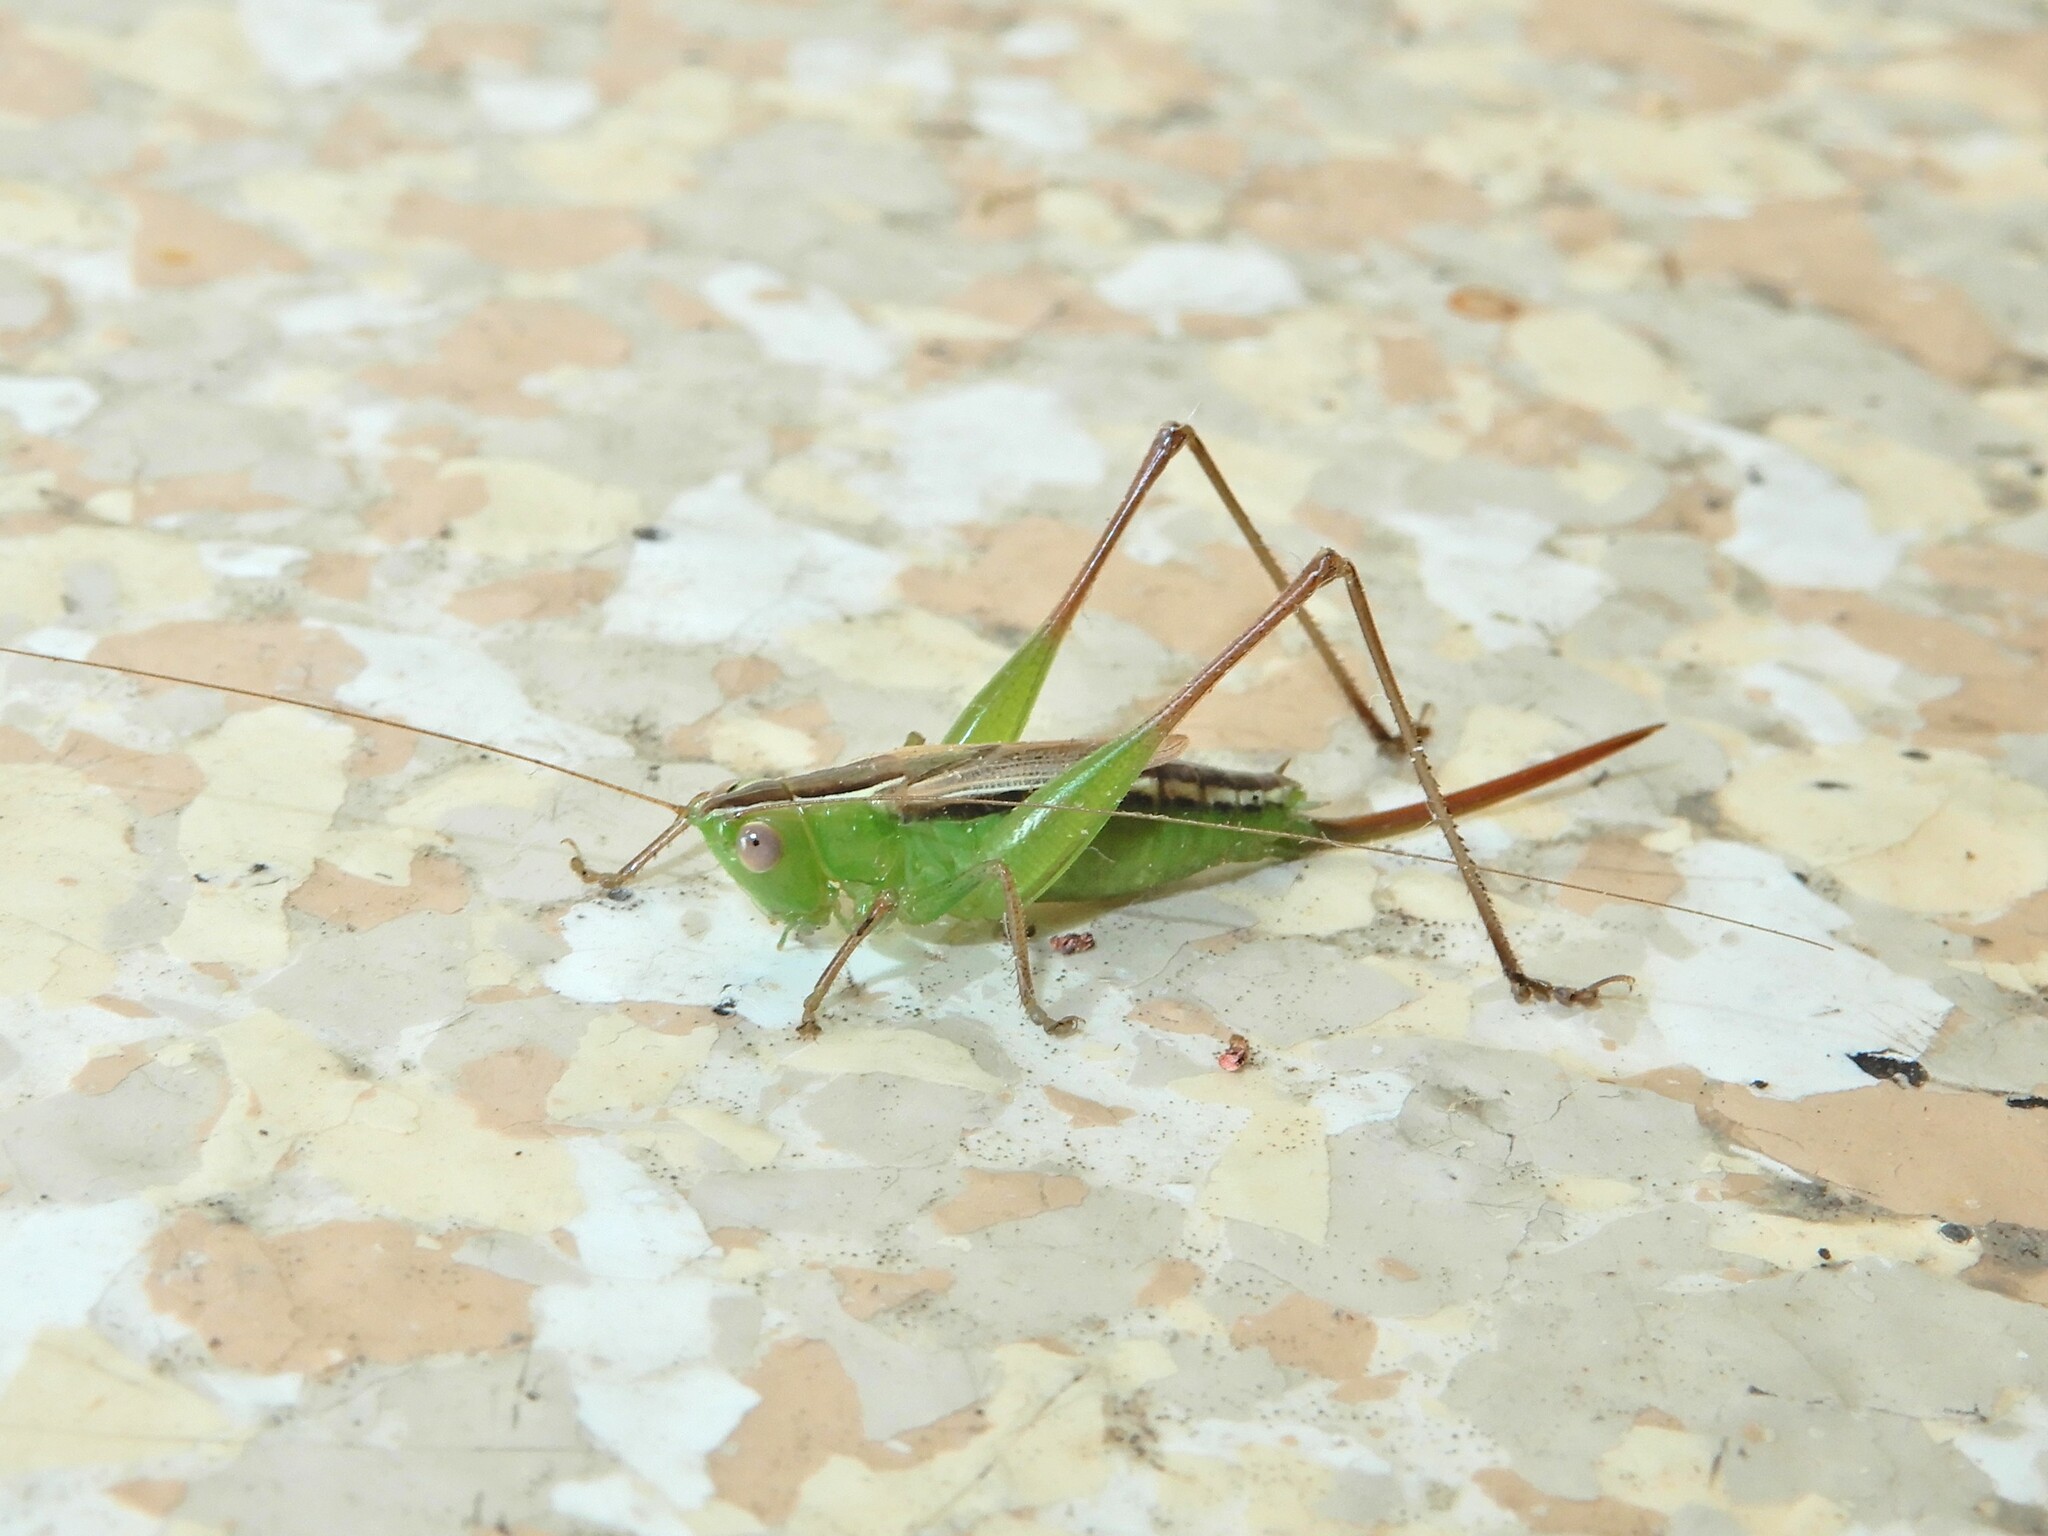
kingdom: Animalia
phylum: Arthropoda
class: Insecta
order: Orthoptera
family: Tettigoniidae
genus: Conocephalus
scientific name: Conocephalus albescens
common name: Whitish meadow katydid
